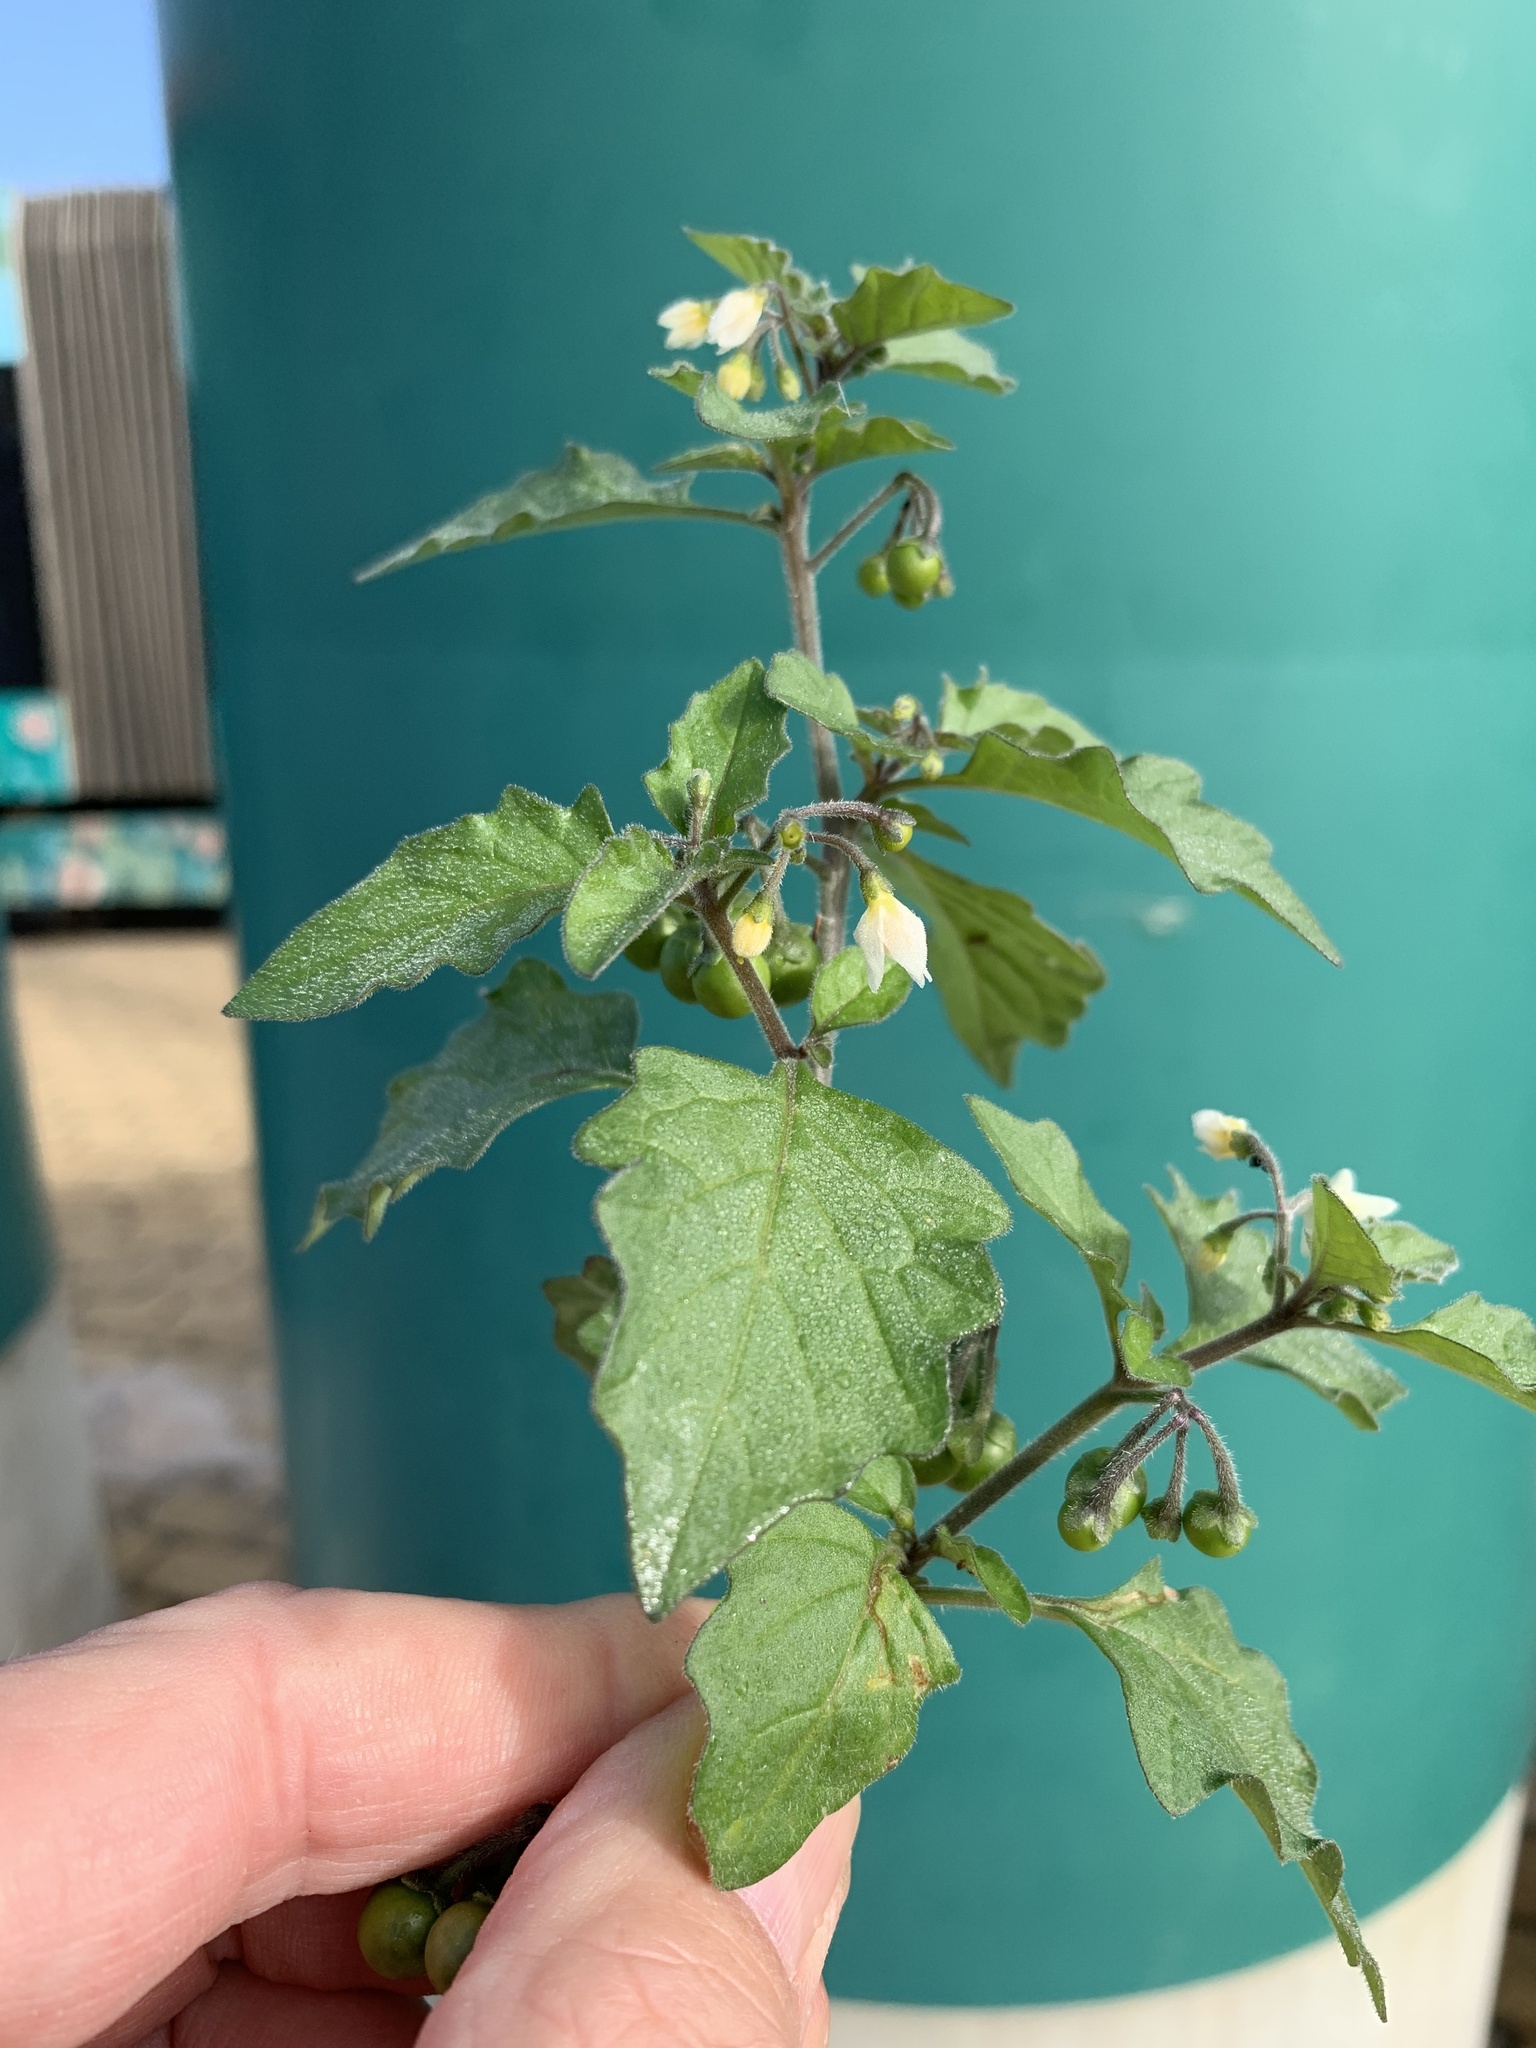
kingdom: Plantae
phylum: Tracheophyta
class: Magnoliopsida
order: Solanales
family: Solanaceae
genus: Solanum
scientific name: Solanum nigrum
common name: Black nightshade
